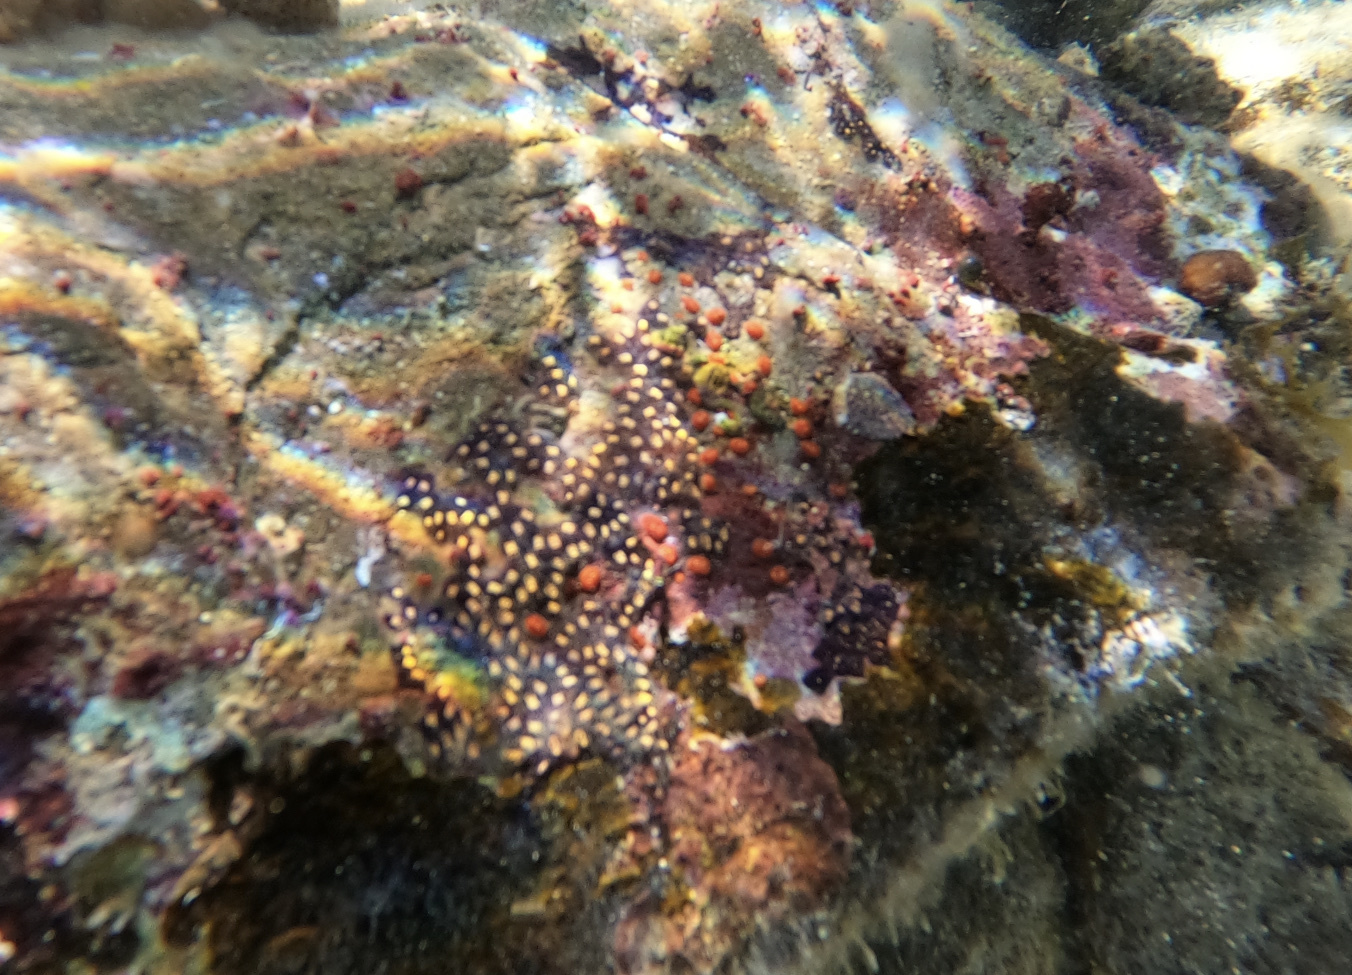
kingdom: Animalia
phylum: Chordata
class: Ascidiacea
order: Stolidobranchia
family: Styelidae
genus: Symplegma
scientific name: Symplegma viride
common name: Green incrusting tunicate
